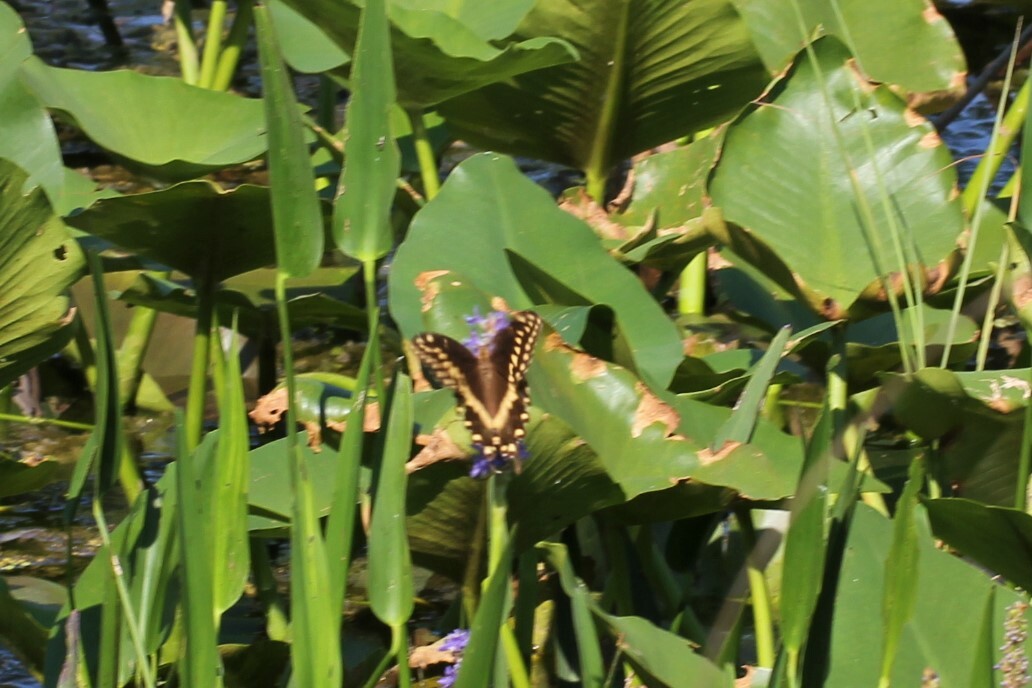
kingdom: Animalia
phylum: Arthropoda
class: Insecta
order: Lepidoptera
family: Papilionidae
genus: Papilio
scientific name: Papilio palamedes
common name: Palamedes swallowtail
